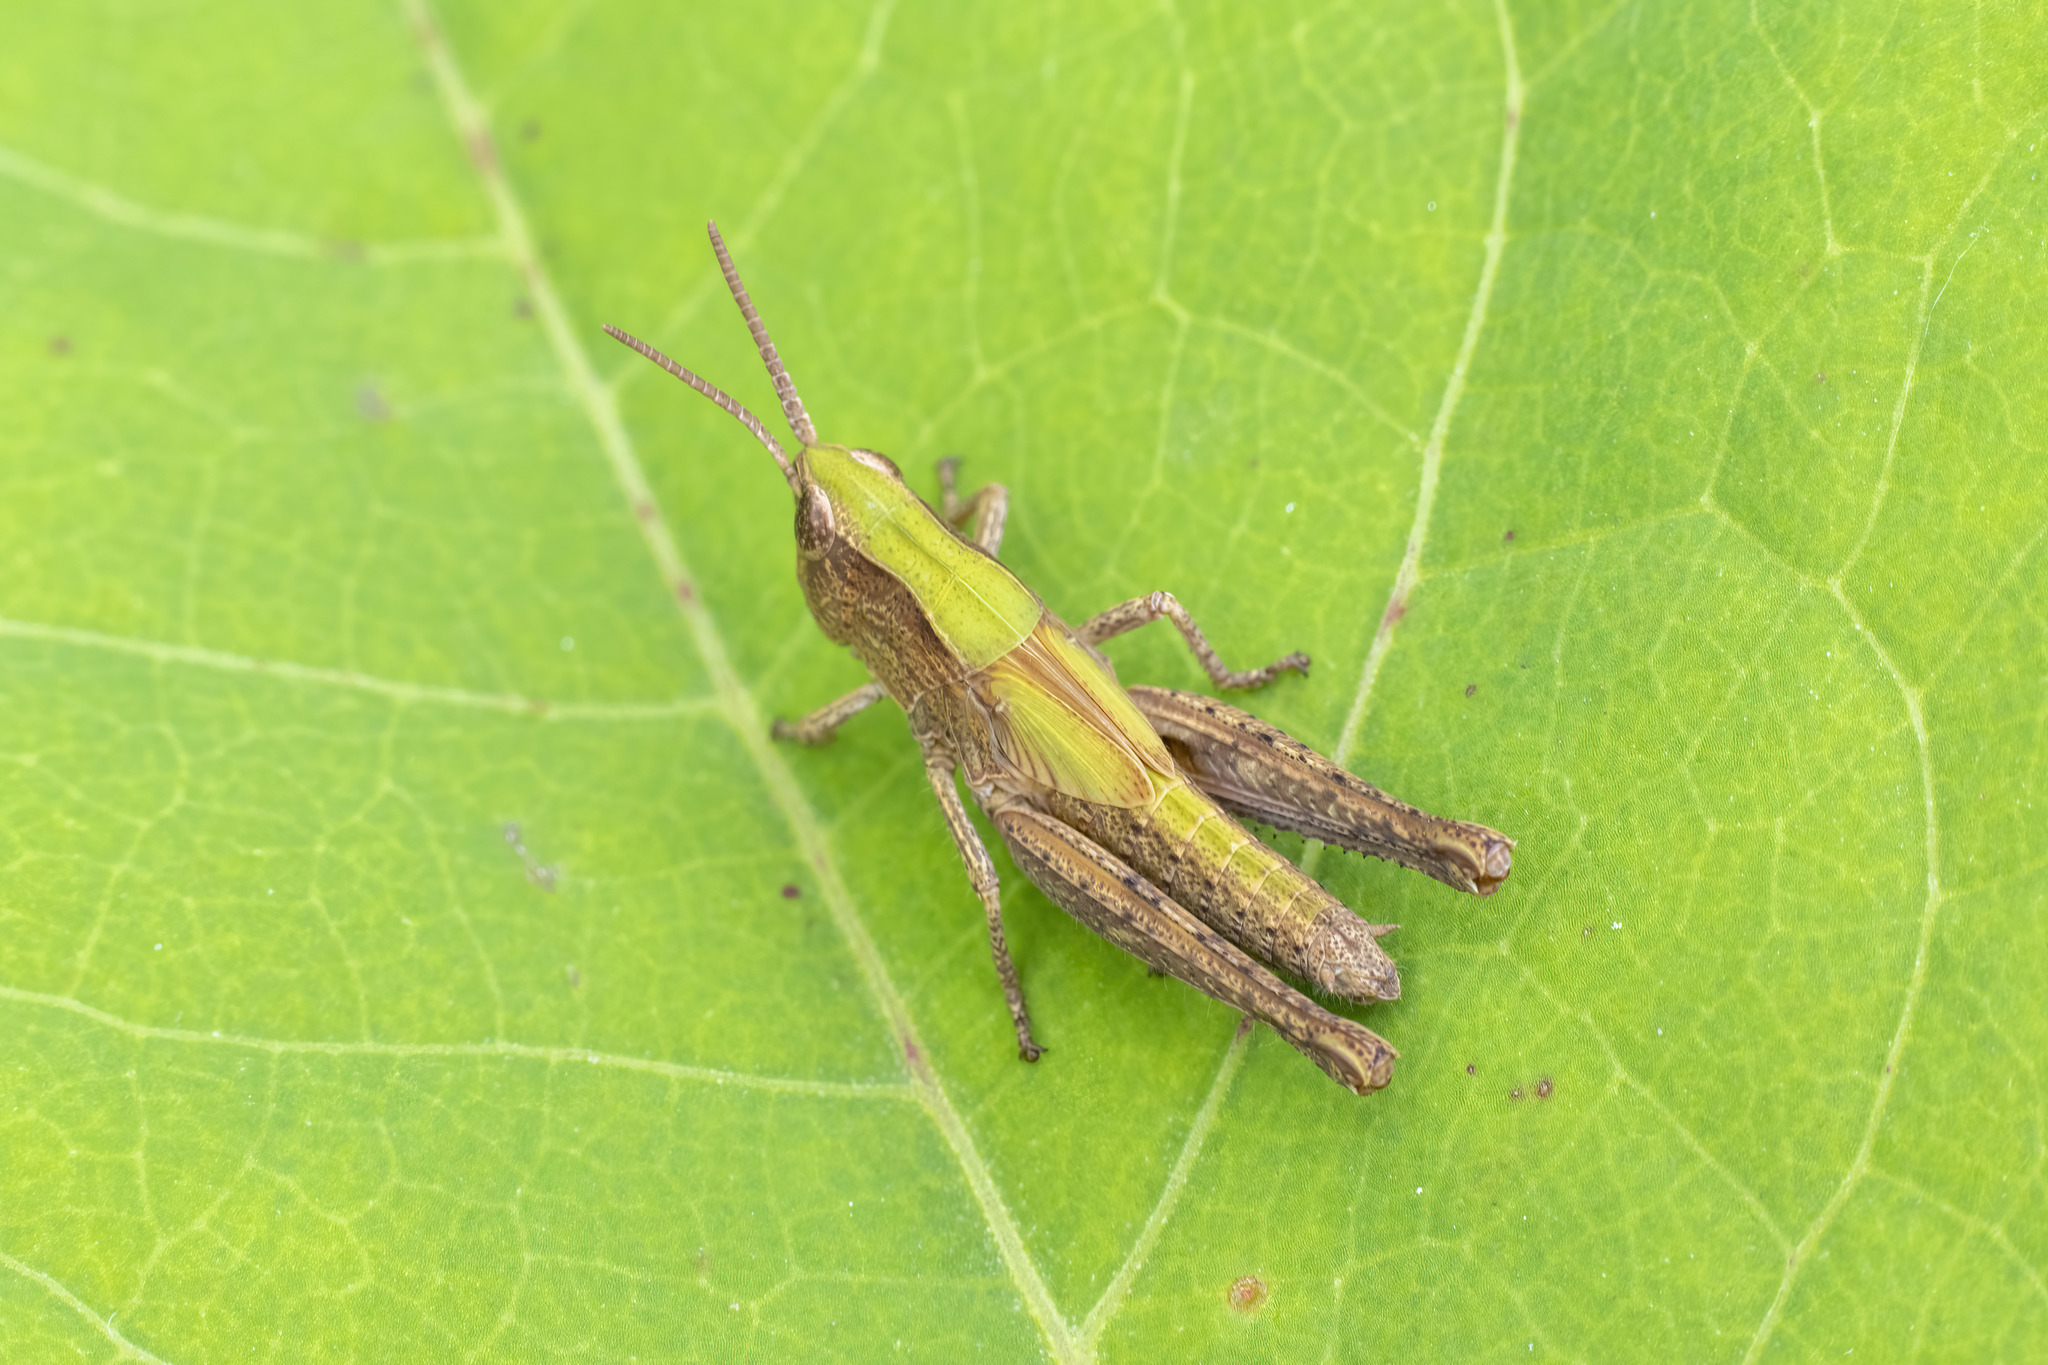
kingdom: Animalia
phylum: Arthropoda
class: Insecta
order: Orthoptera
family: Acrididae
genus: Chorthippus
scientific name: Chorthippus dorsatus
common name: Steppe grasshopper
